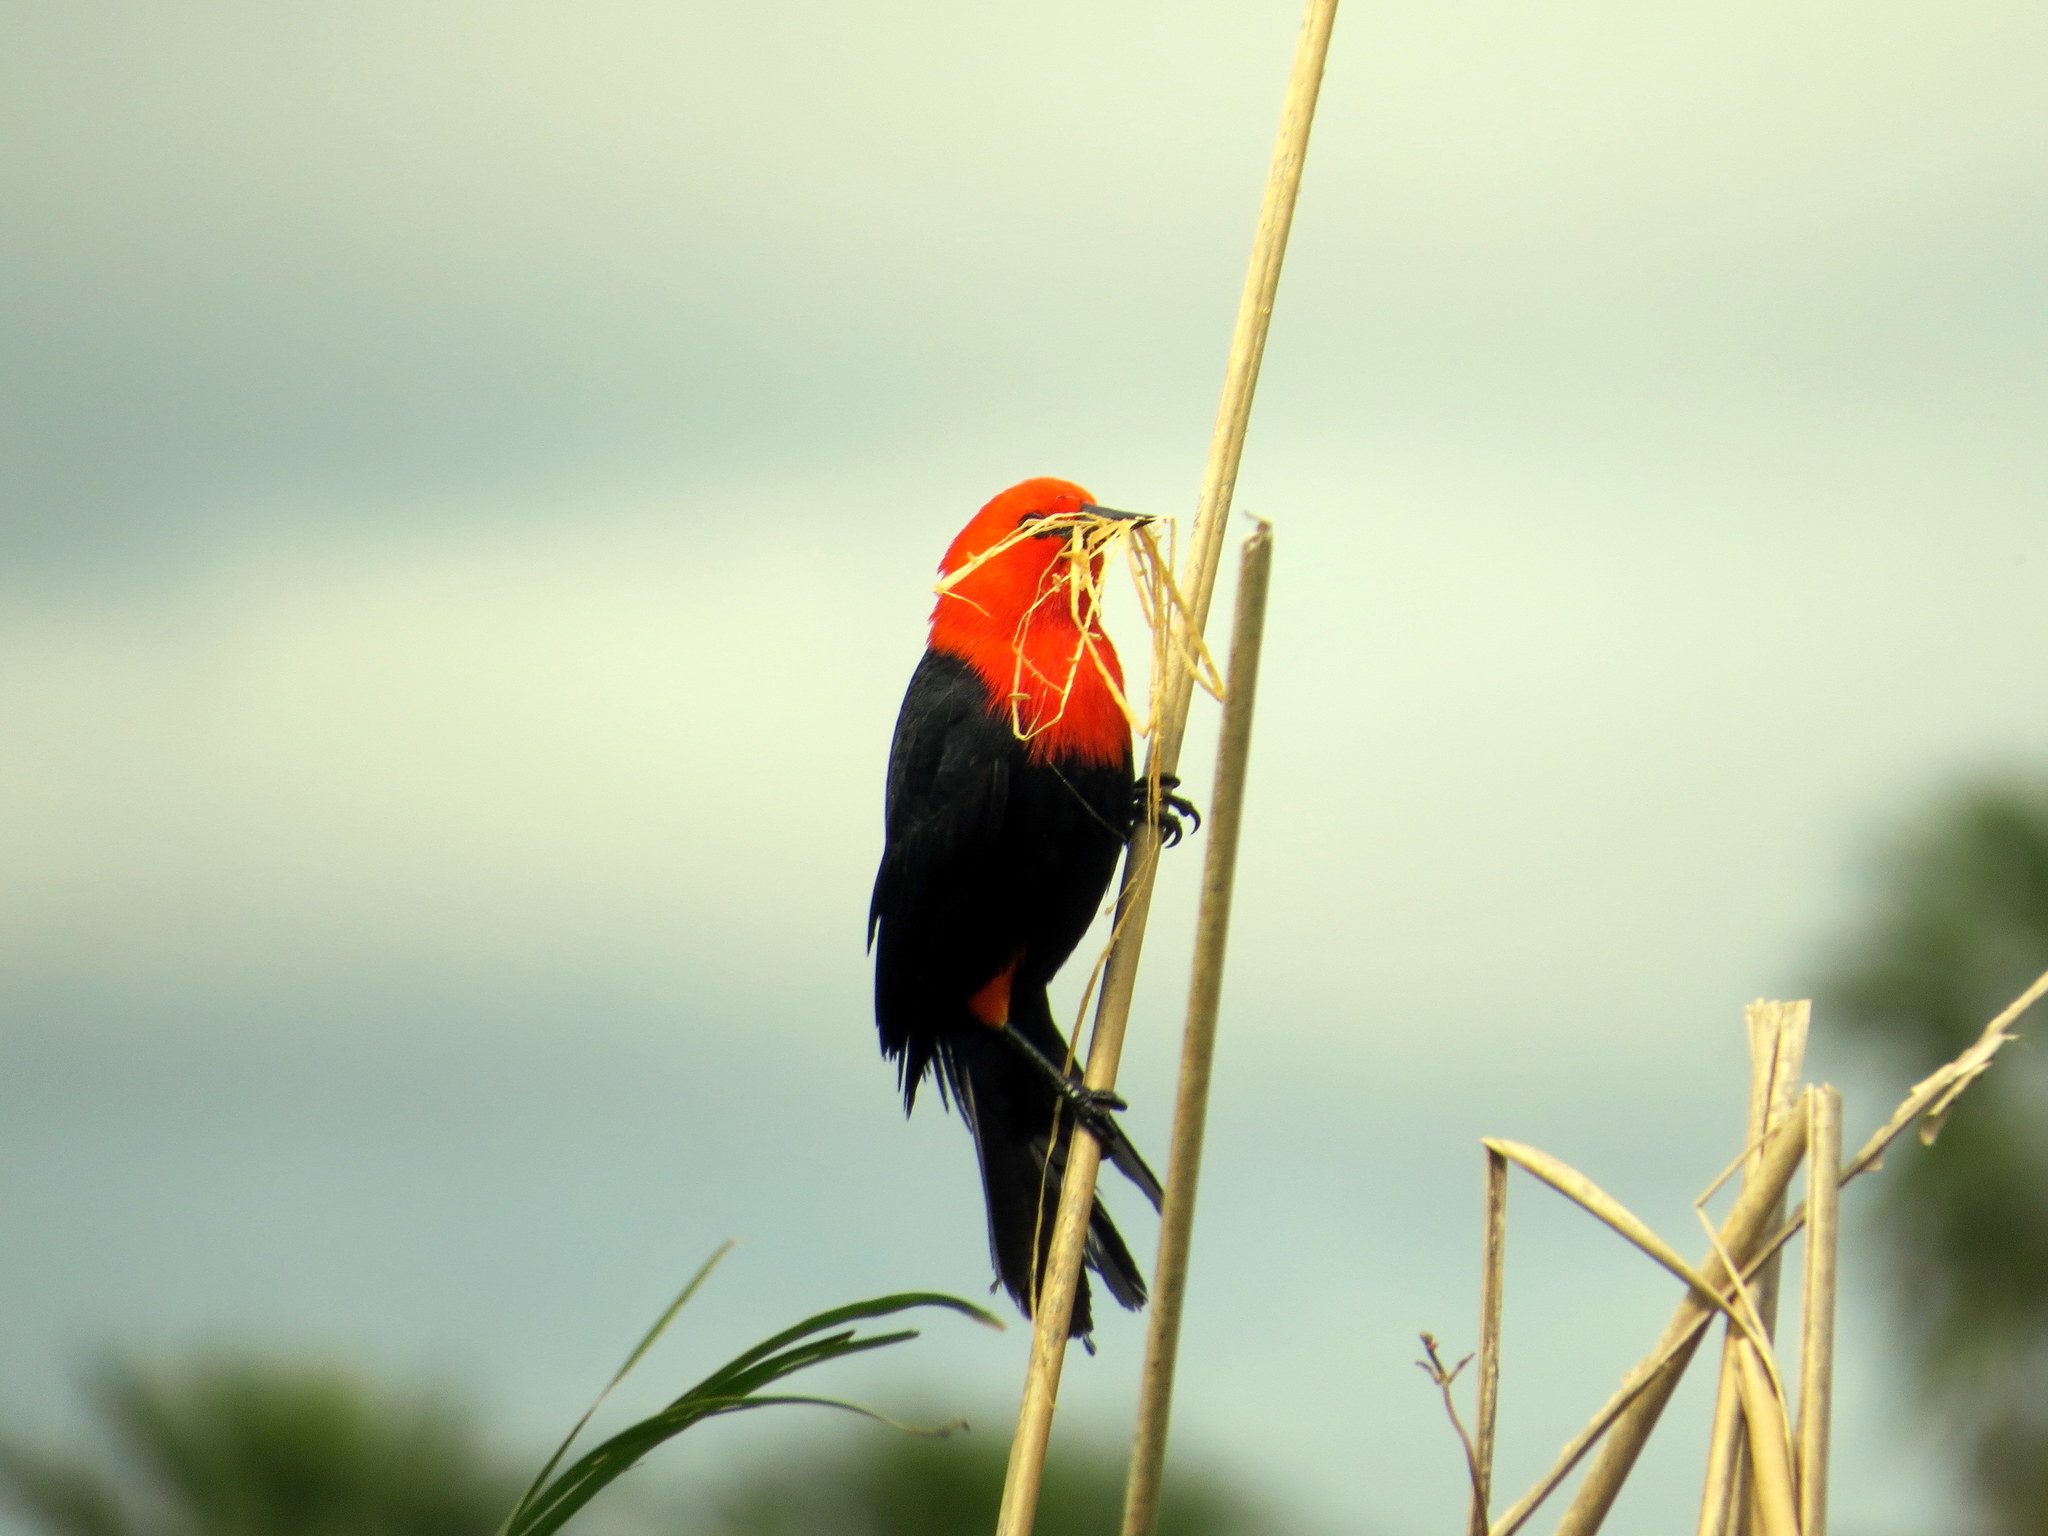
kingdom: Animalia
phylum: Chordata
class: Aves
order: Passeriformes
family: Icteridae
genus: Amblyramphus
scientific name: Amblyramphus holosericeus
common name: Scarlet-headed blackbird
